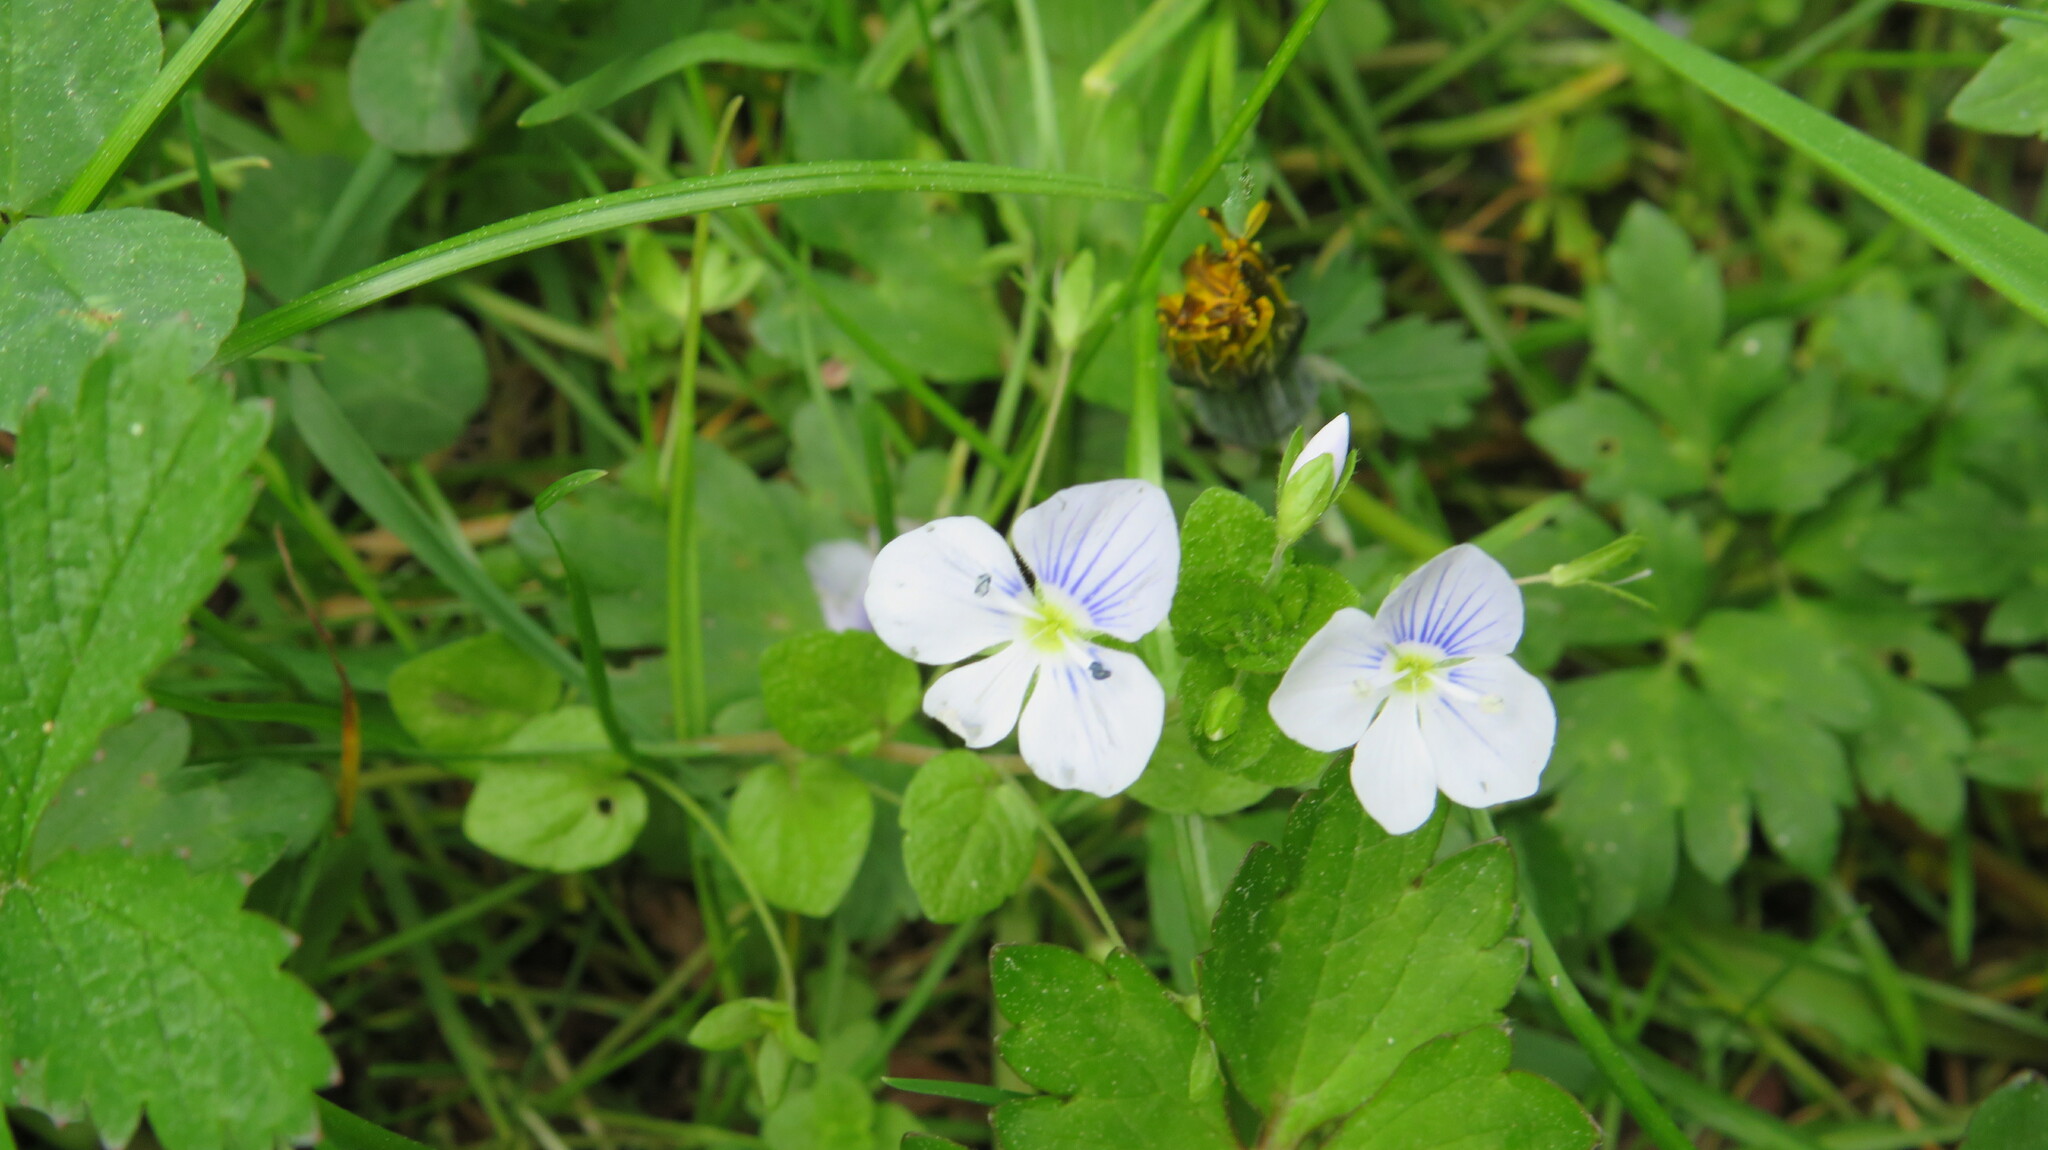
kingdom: Plantae
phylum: Tracheophyta
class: Magnoliopsida
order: Lamiales
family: Plantaginaceae
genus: Veronica
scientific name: Veronica filiformis
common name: Slender speedwell
